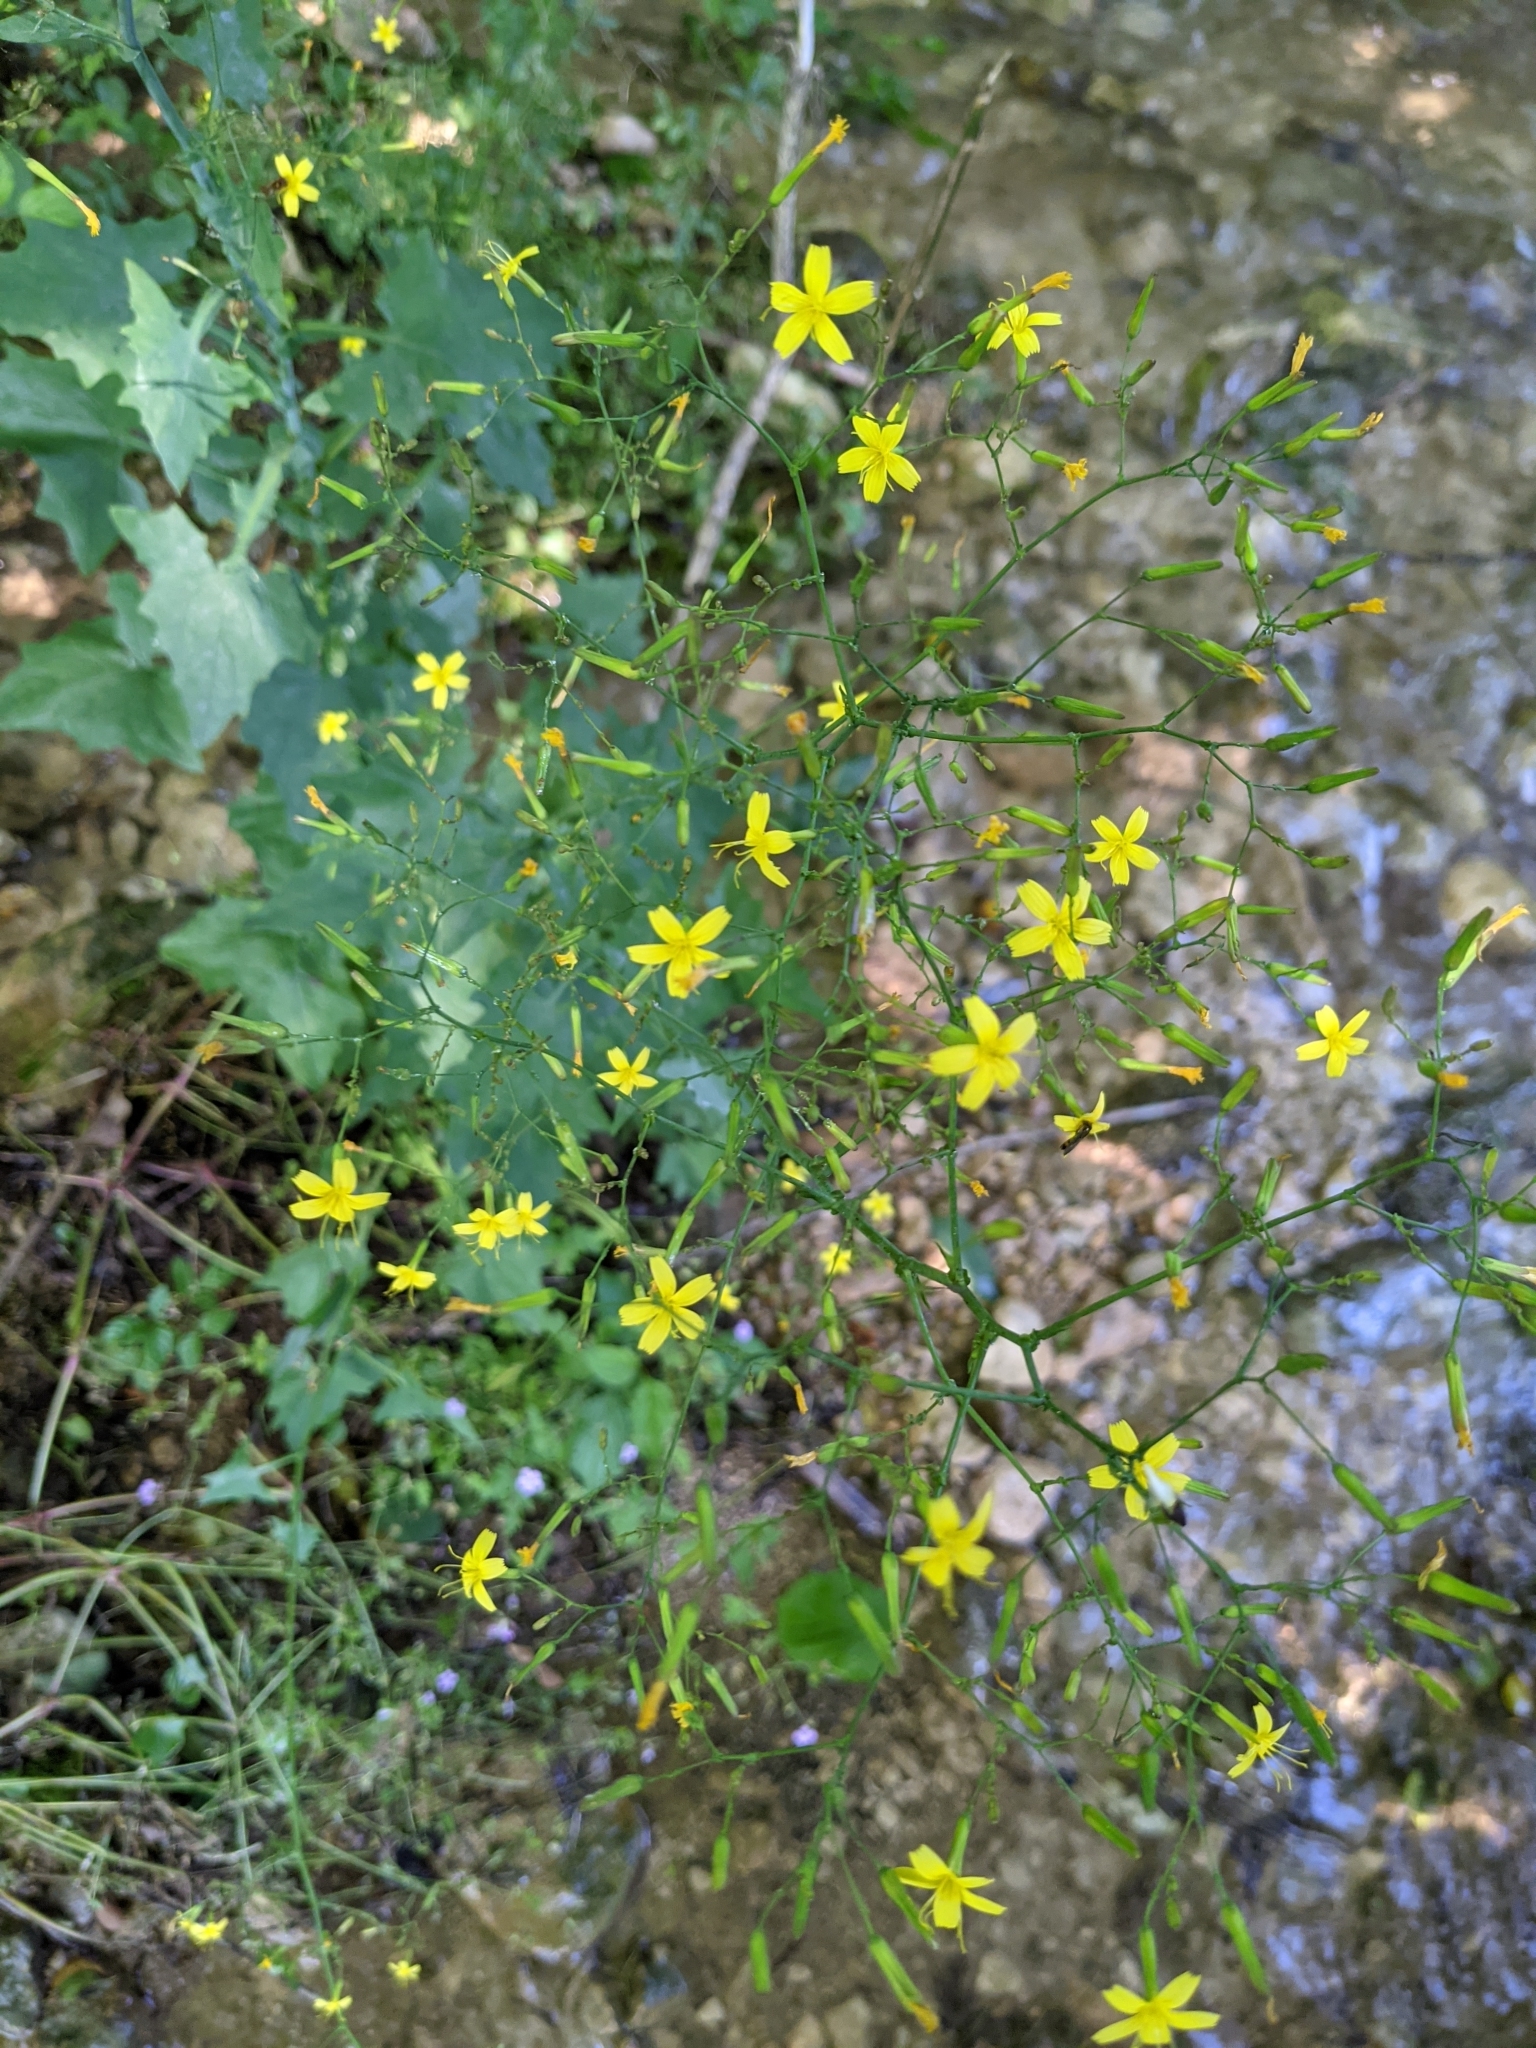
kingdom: Plantae
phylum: Tracheophyta
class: Magnoliopsida
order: Asterales
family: Asteraceae
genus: Mycelis
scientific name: Mycelis muralis
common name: Wall lettuce
